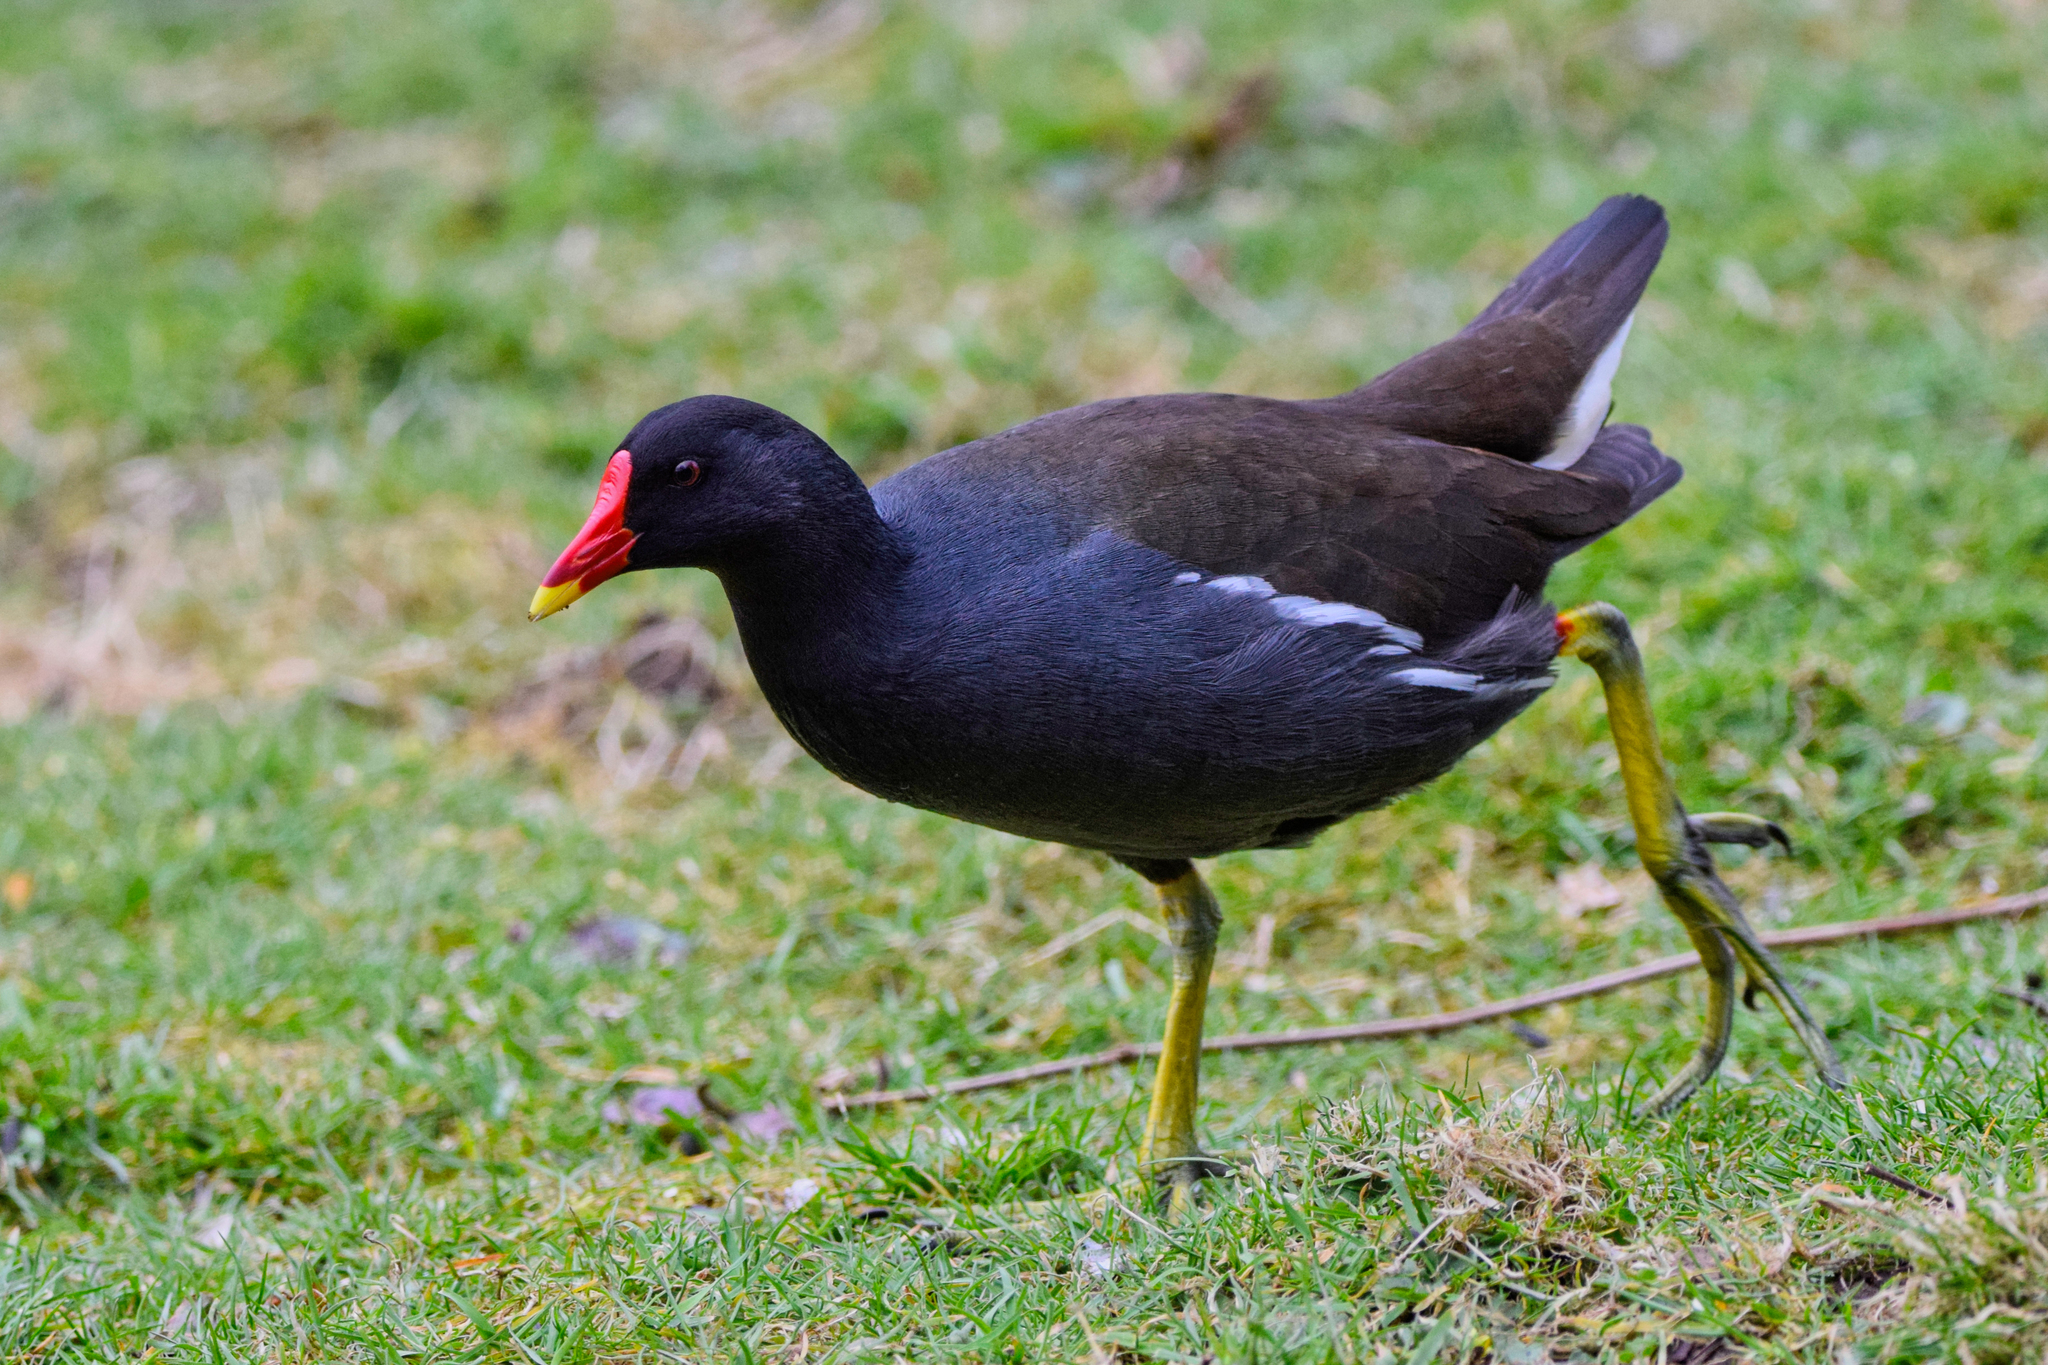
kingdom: Animalia
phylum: Chordata
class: Aves
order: Gruiformes
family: Rallidae
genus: Gallinula
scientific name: Gallinula chloropus
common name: Common moorhen
